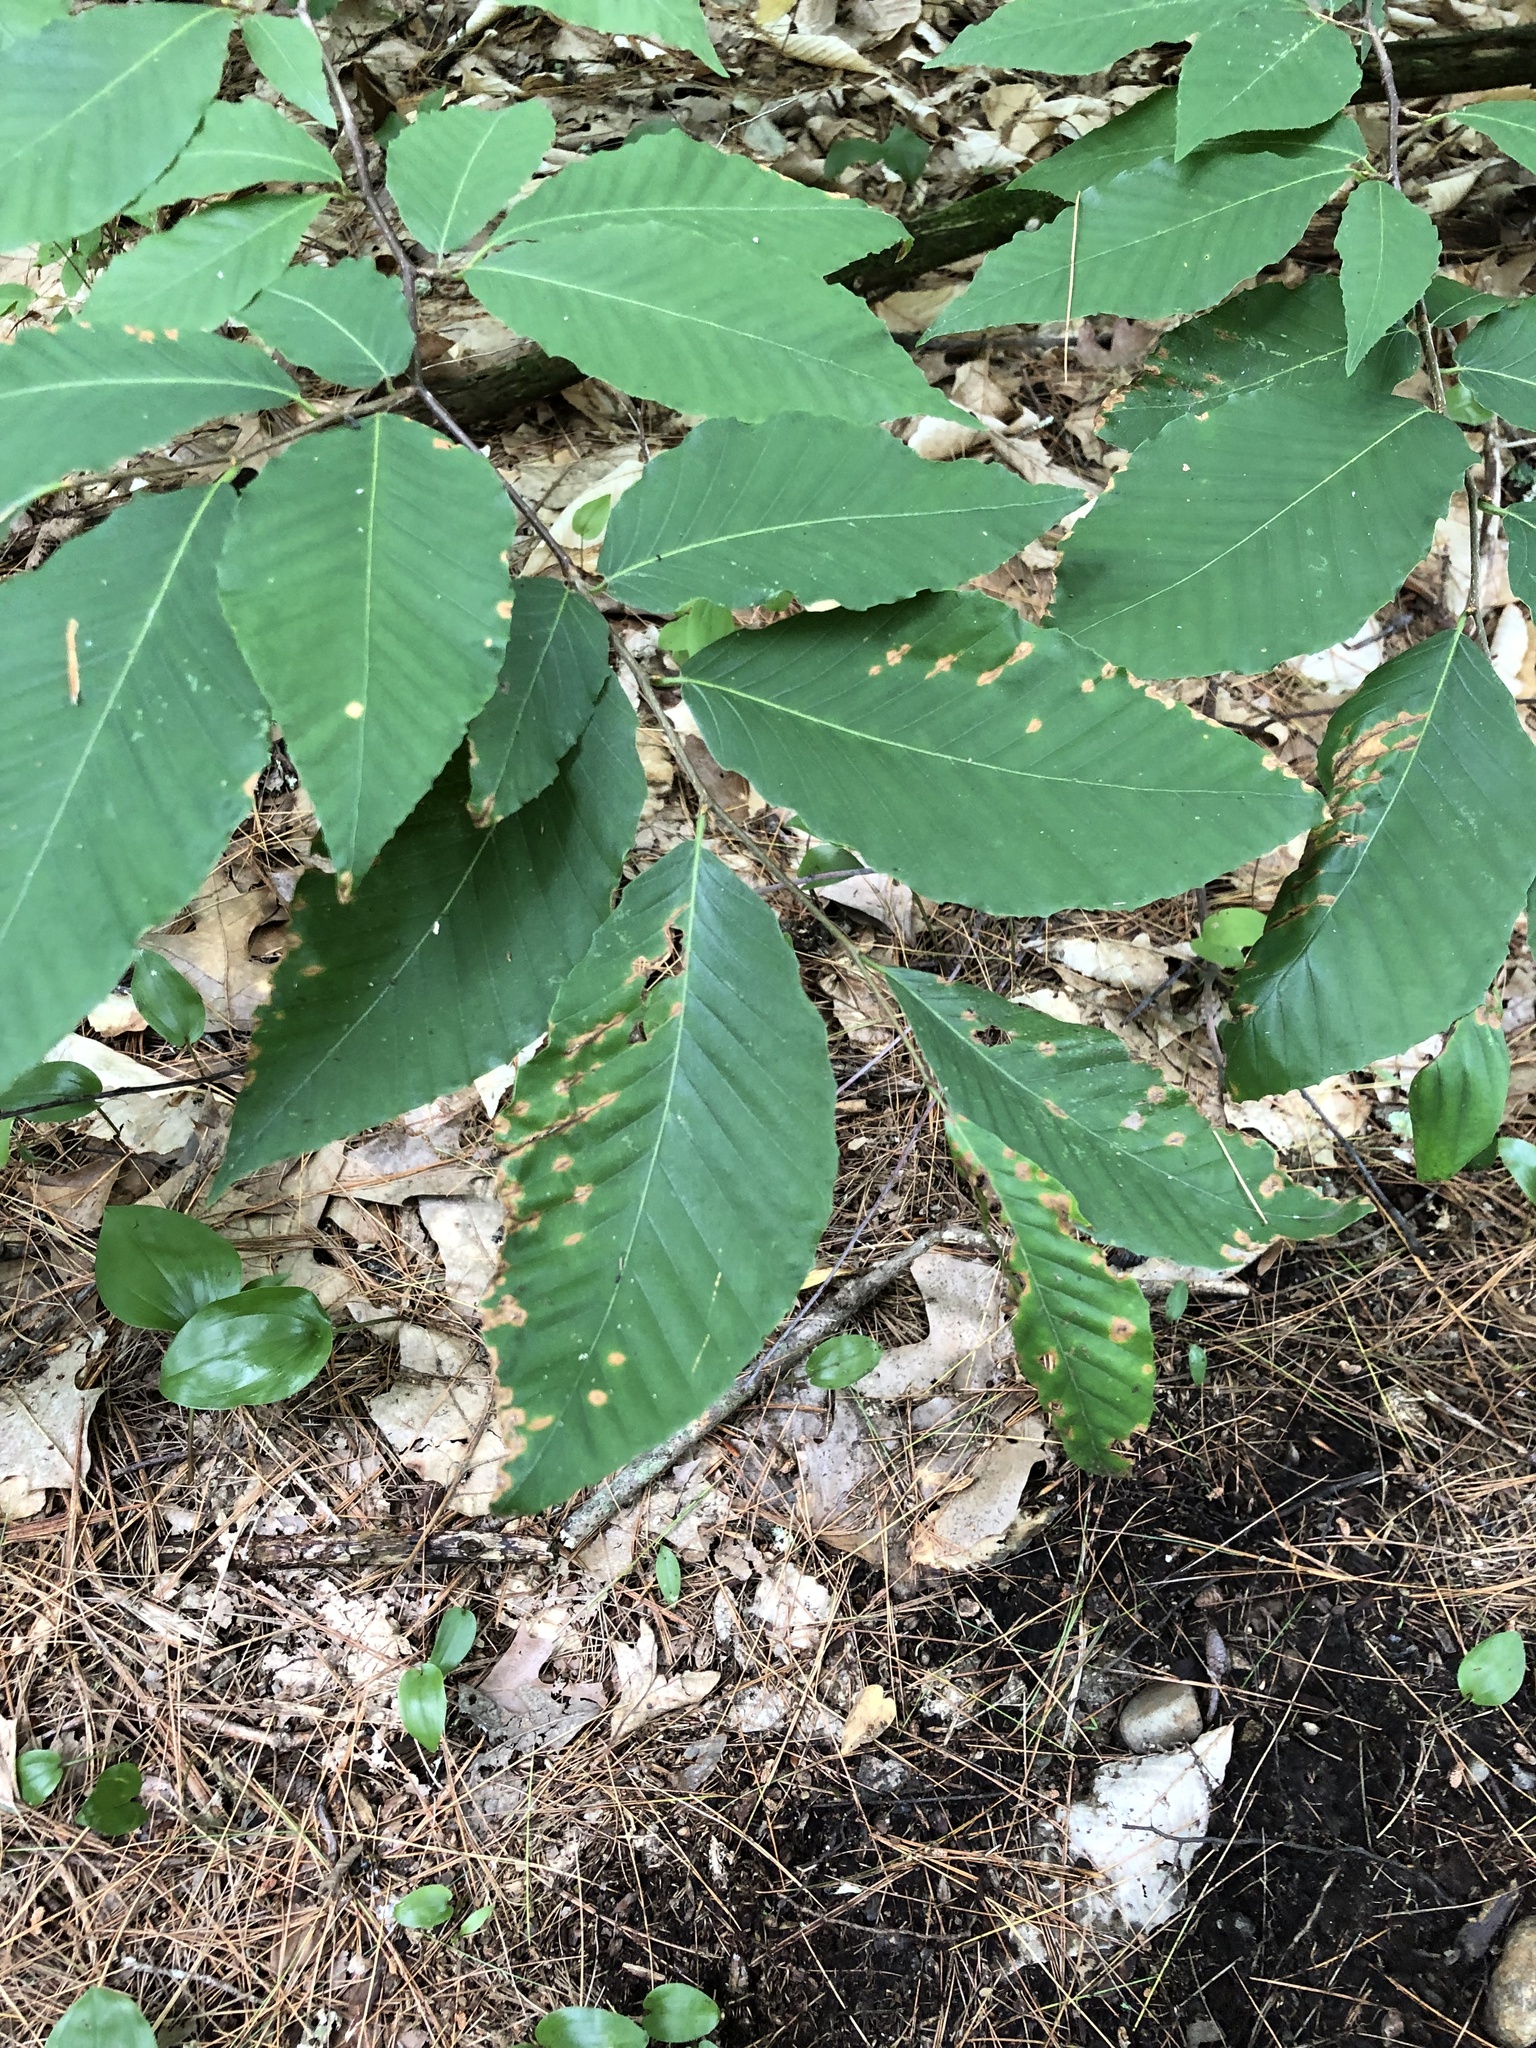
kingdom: Plantae
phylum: Tracheophyta
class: Magnoliopsida
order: Fagales
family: Fagaceae
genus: Fagus
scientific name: Fagus grandifolia
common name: American beech
